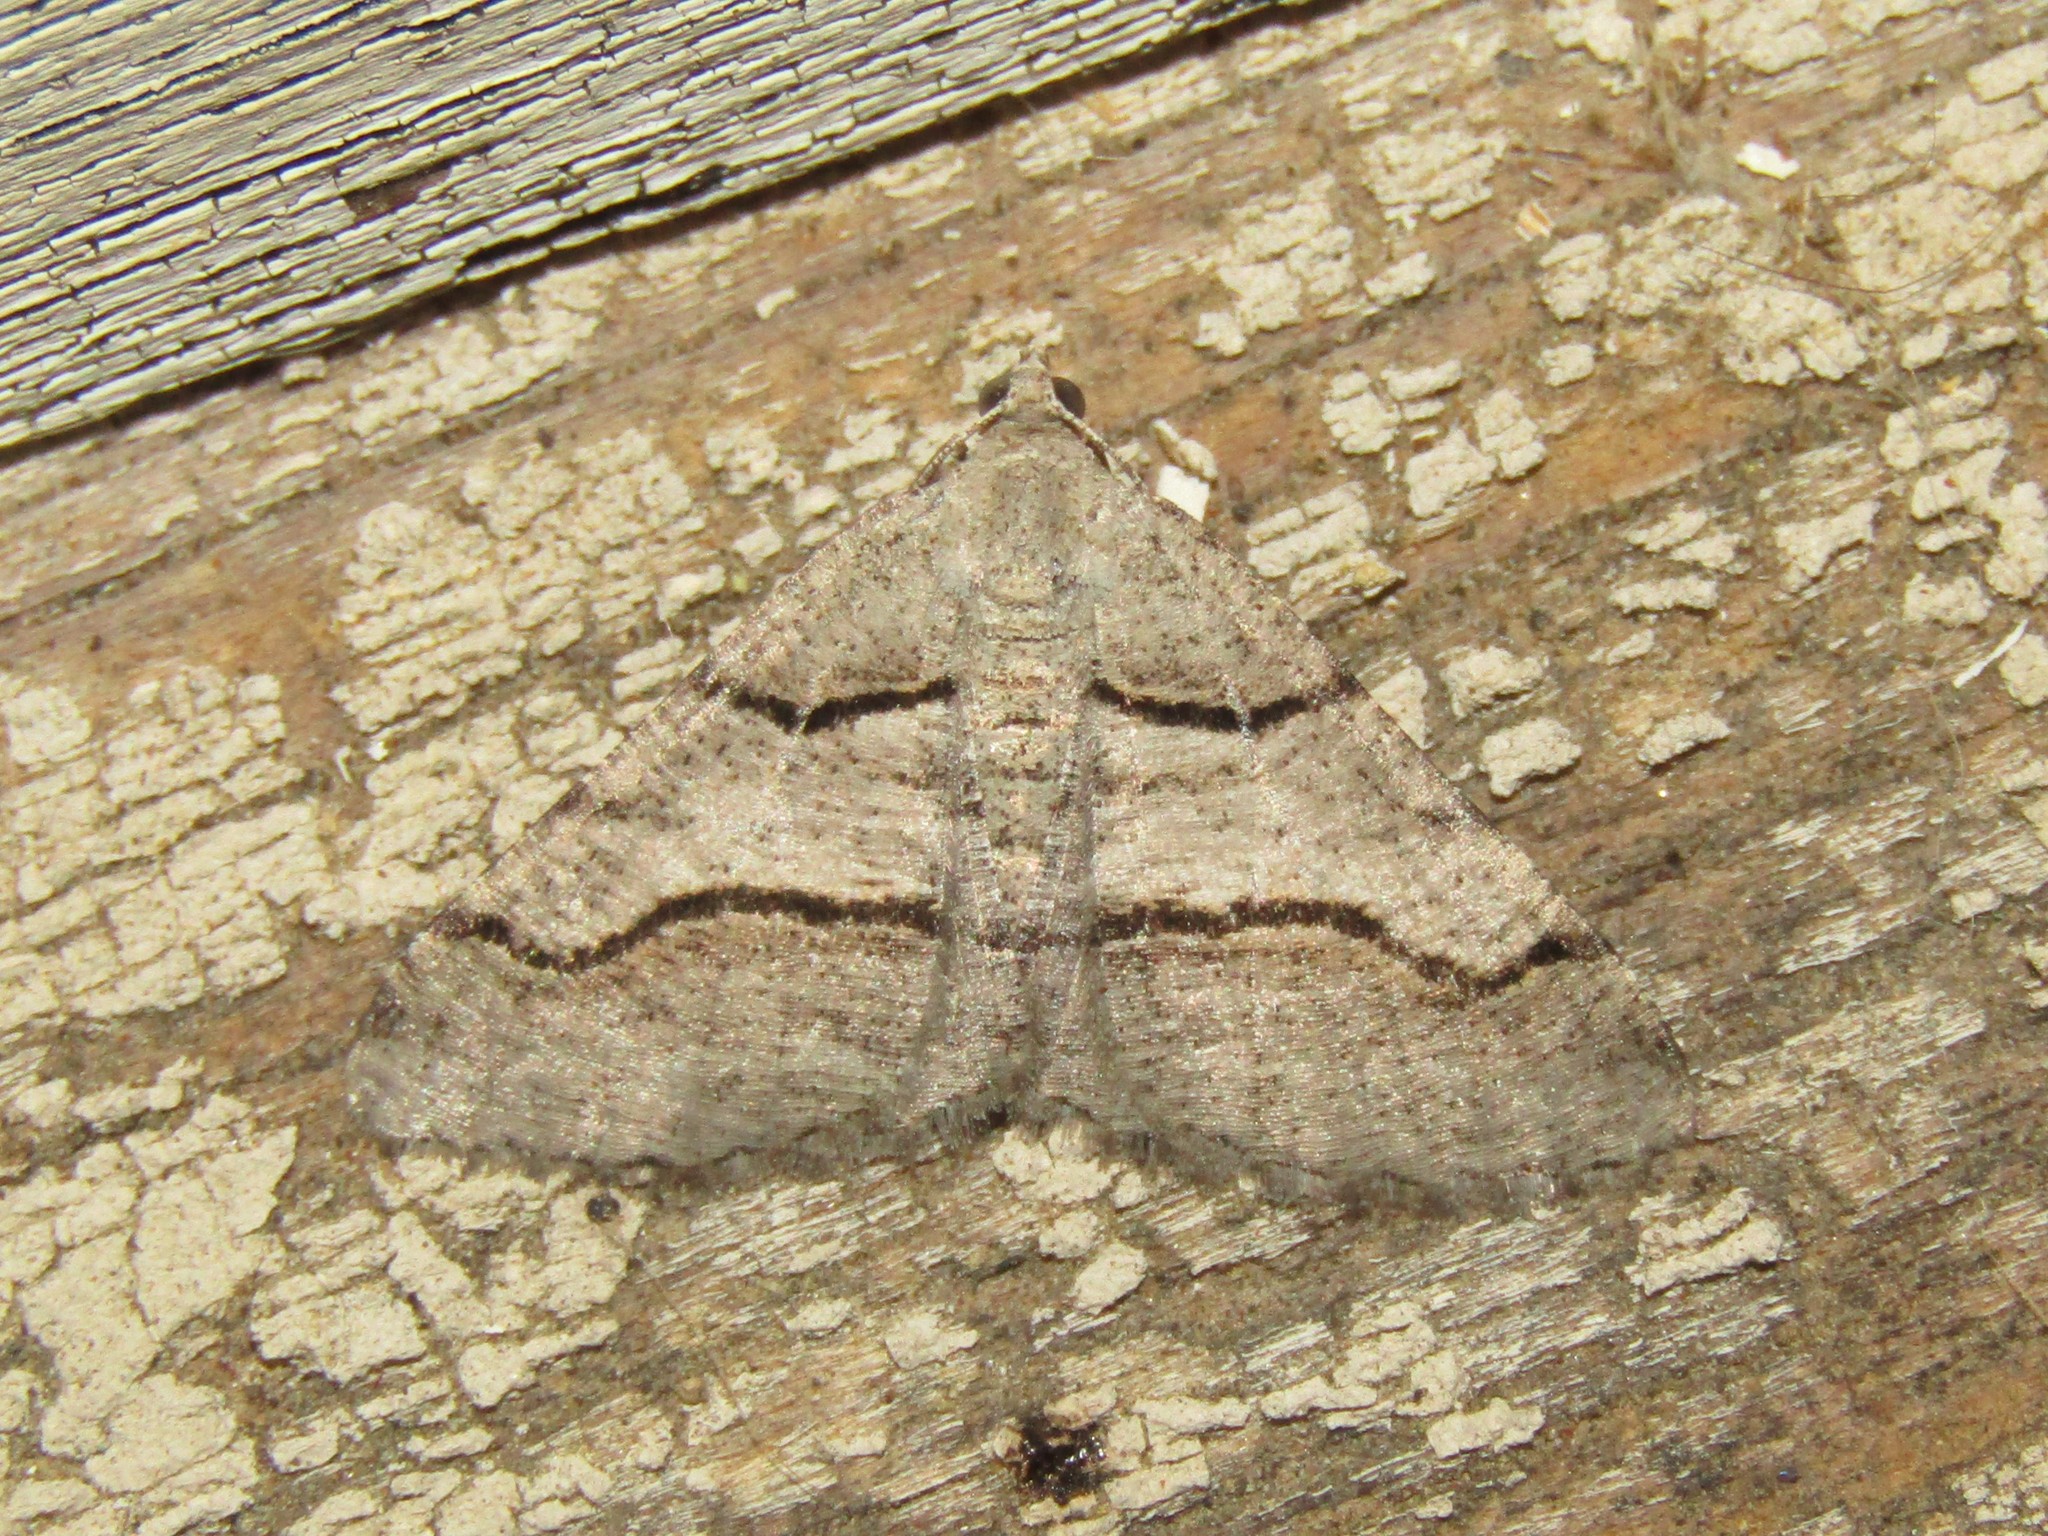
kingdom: Animalia
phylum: Arthropoda
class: Insecta
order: Lepidoptera
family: Geometridae
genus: Digrammia
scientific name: Digrammia continuata
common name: Curve-lined angle
